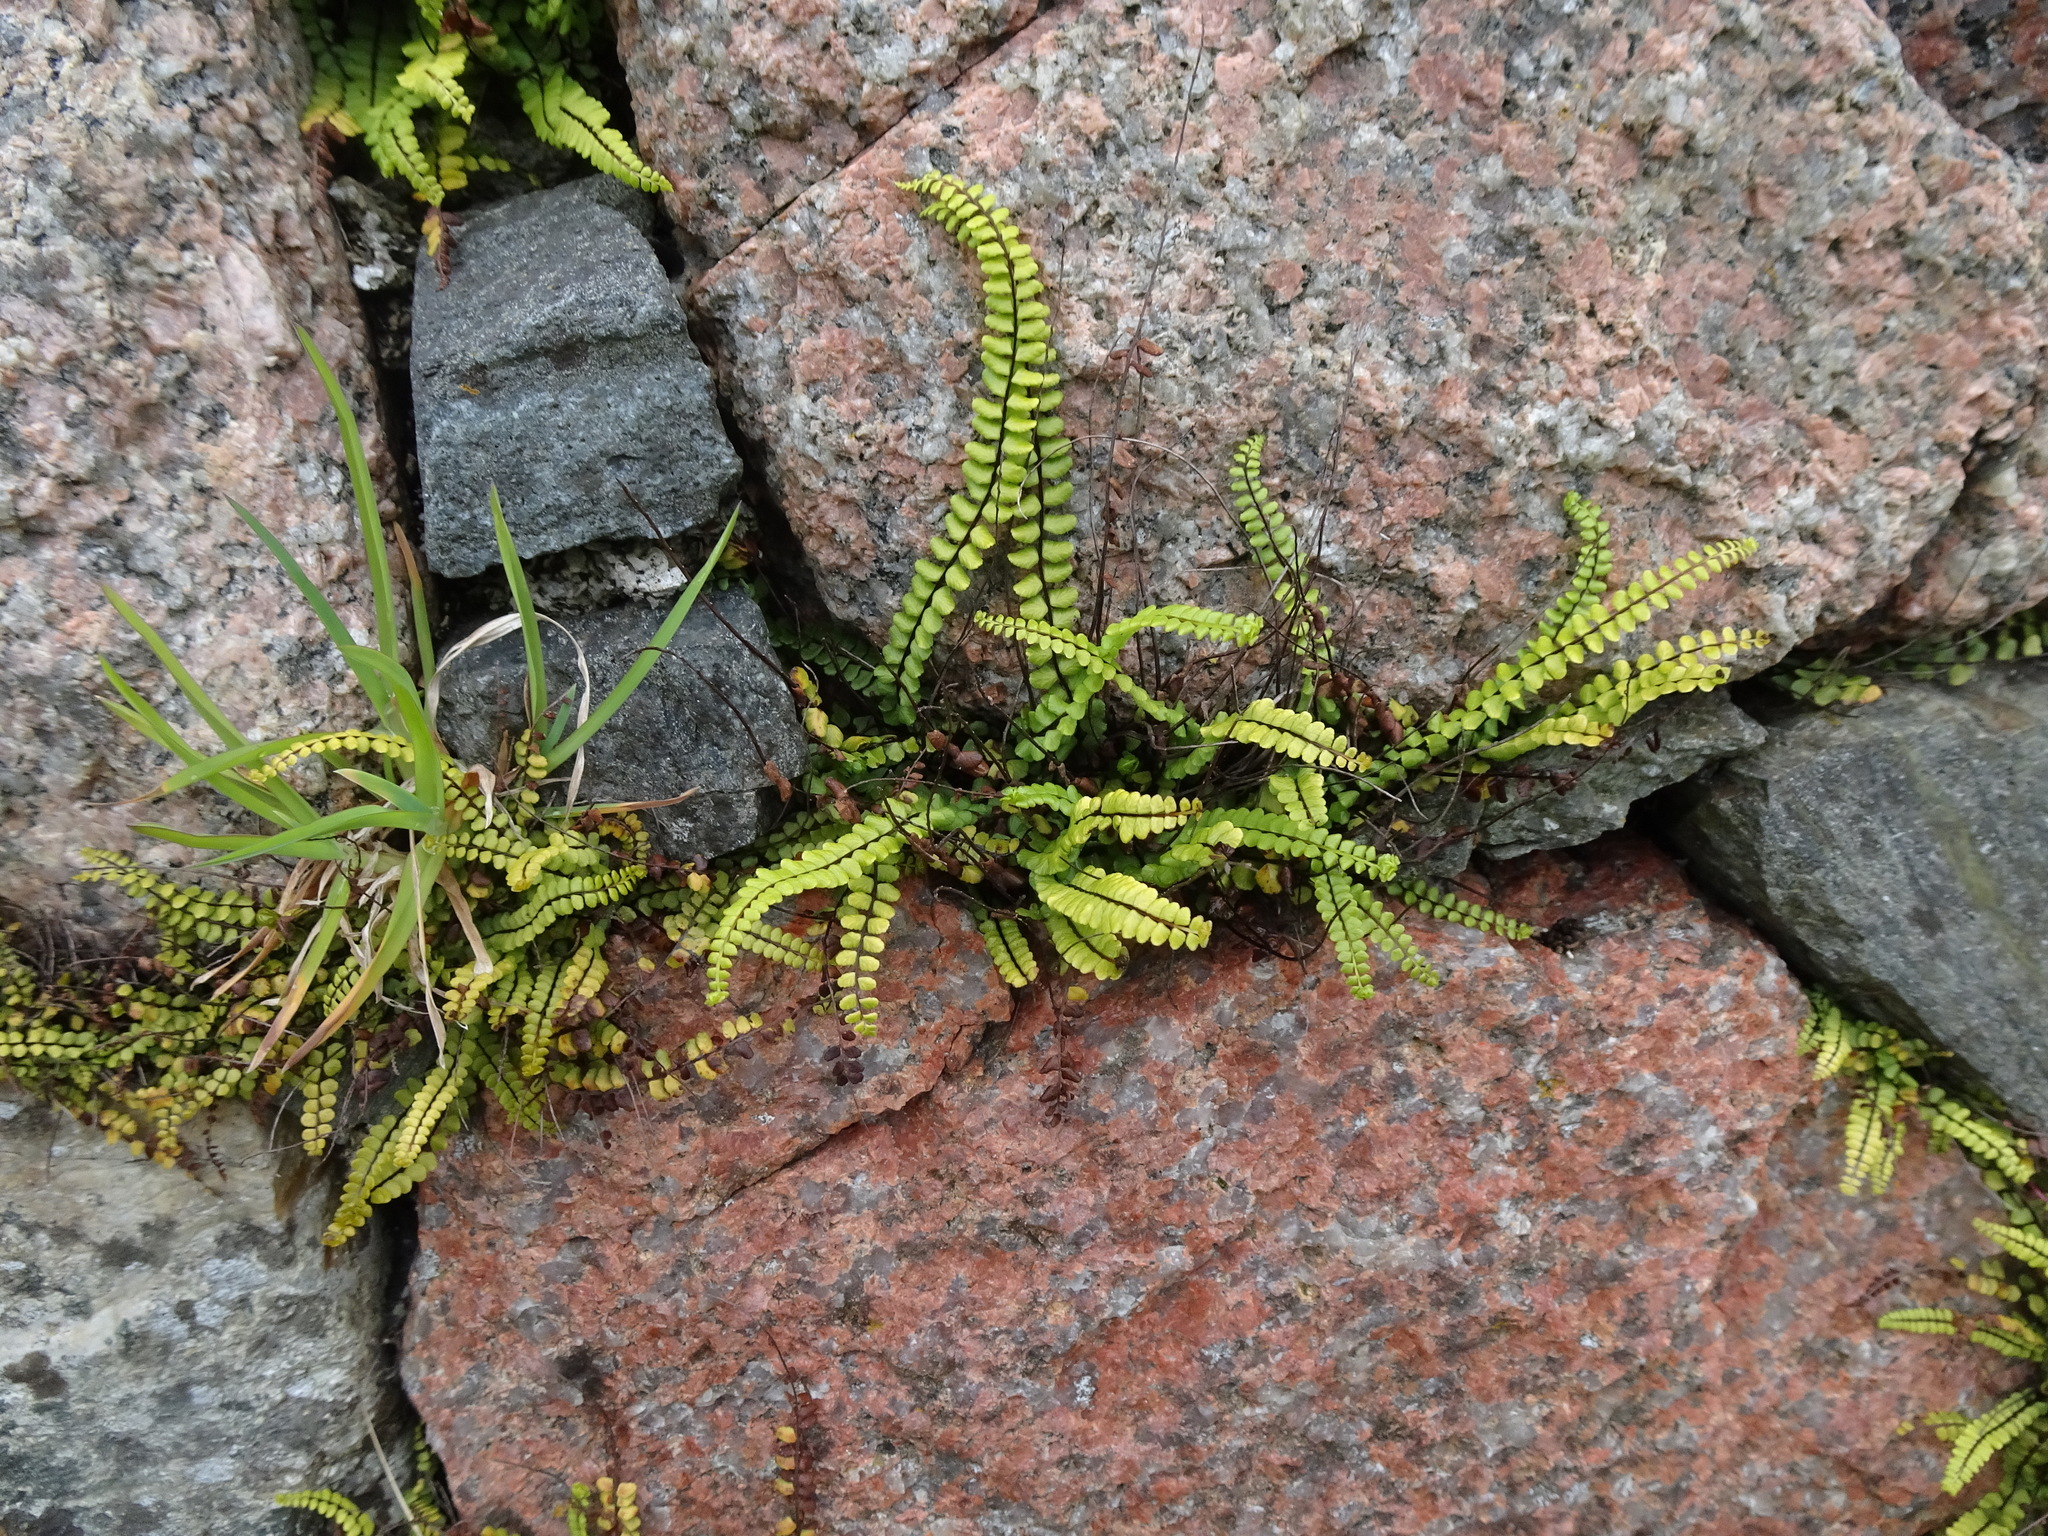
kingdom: Plantae
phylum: Tracheophyta
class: Polypodiopsida
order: Polypodiales
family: Aspleniaceae
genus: Asplenium
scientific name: Asplenium trichomanes
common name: Maidenhair spleenwort
